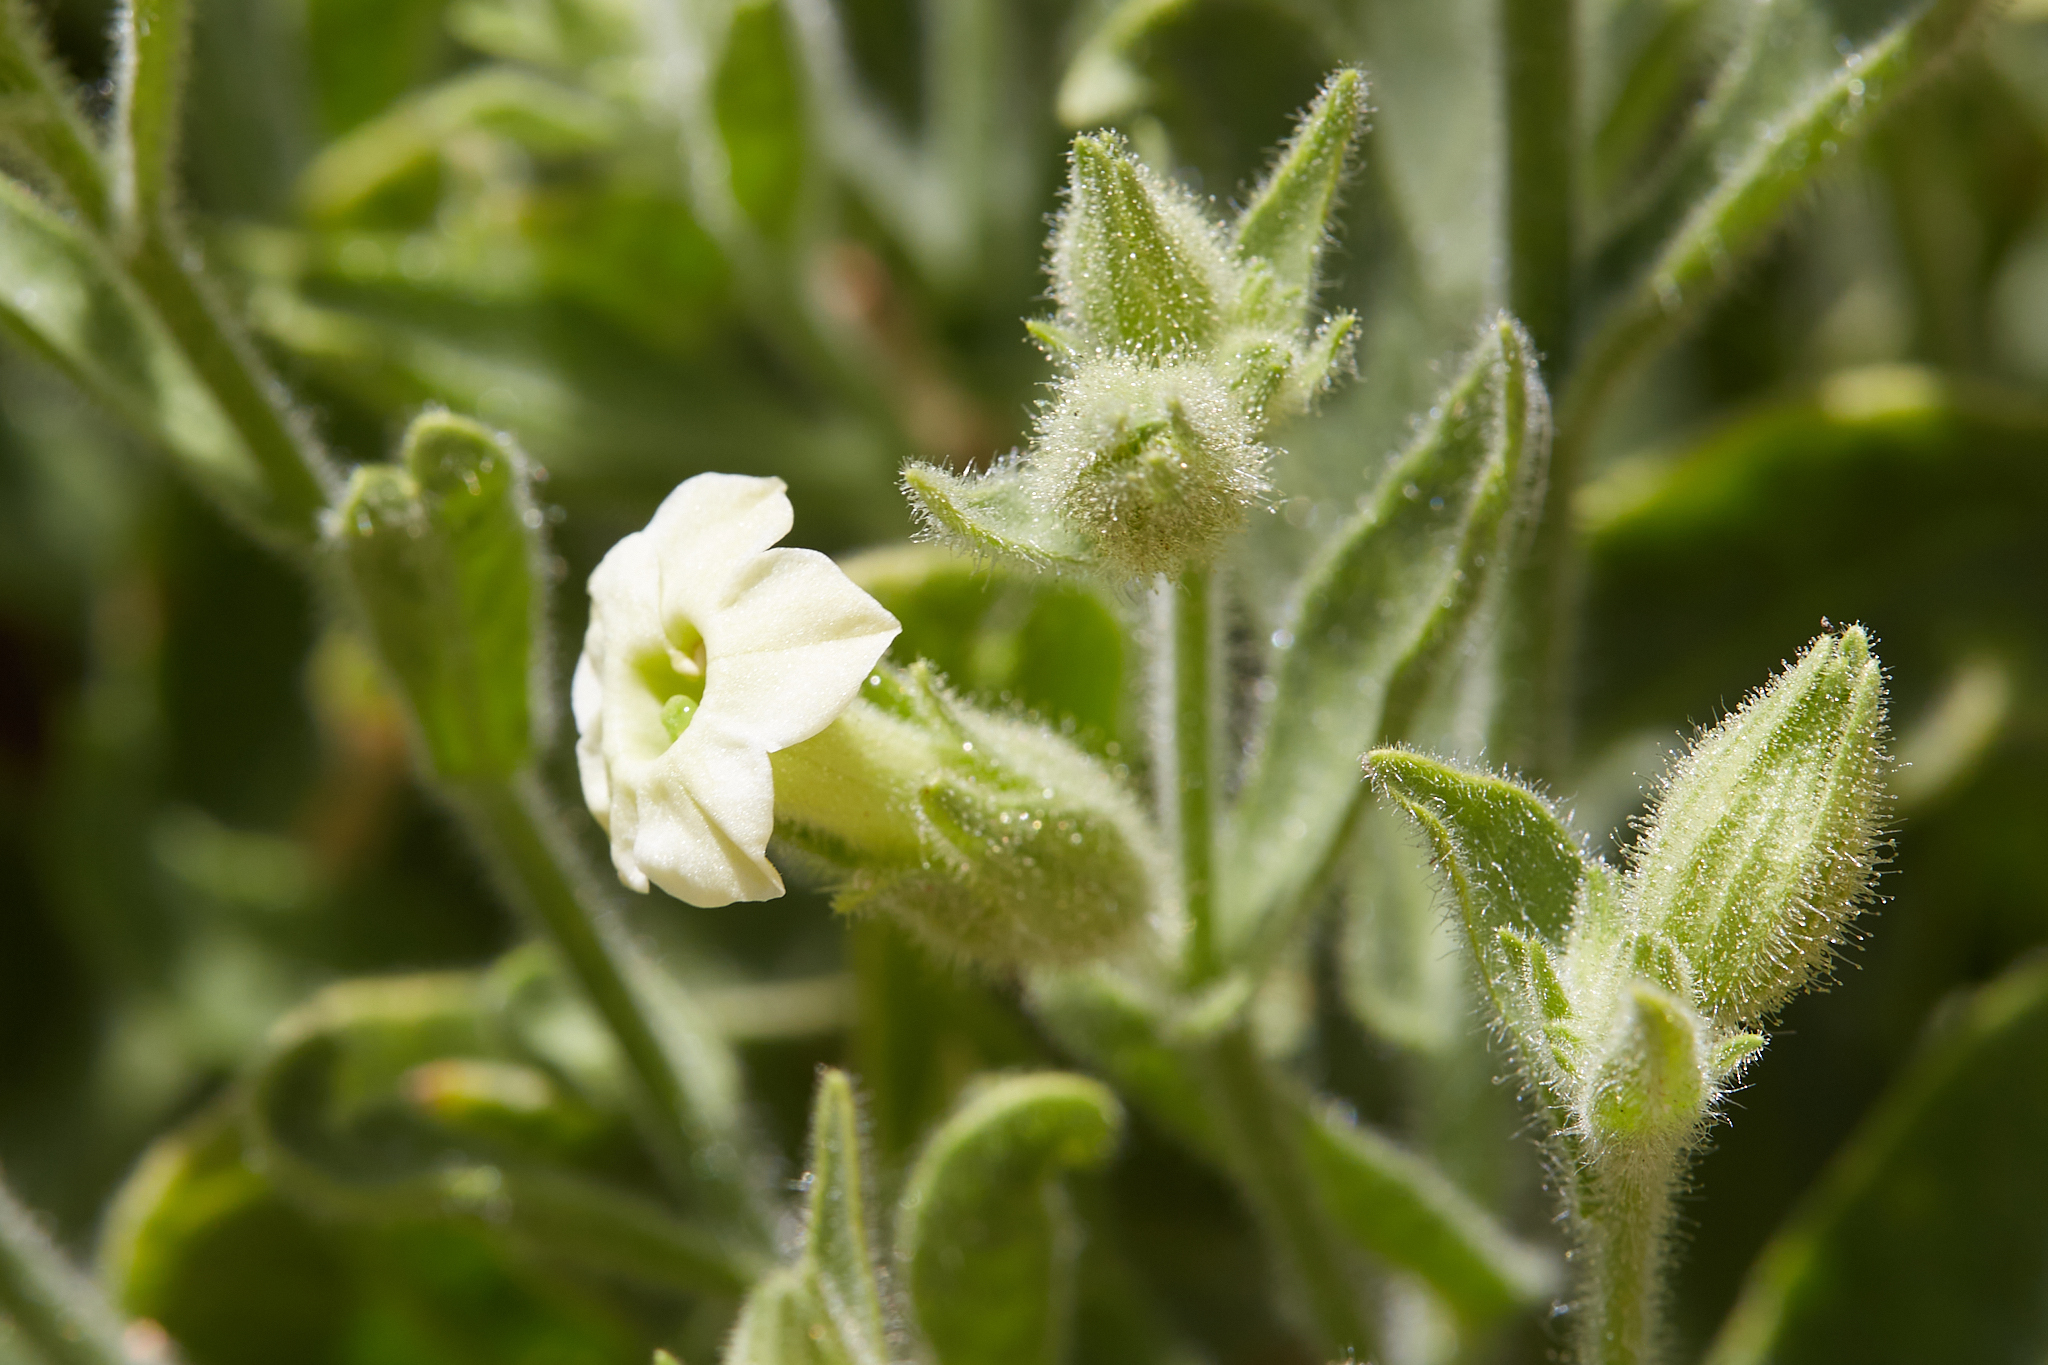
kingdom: Plantae
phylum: Tracheophyta
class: Magnoliopsida
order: Solanales
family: Solanaceae
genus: Nicotiana
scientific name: Nicotiana obtusifolia
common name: Desert tobacco
